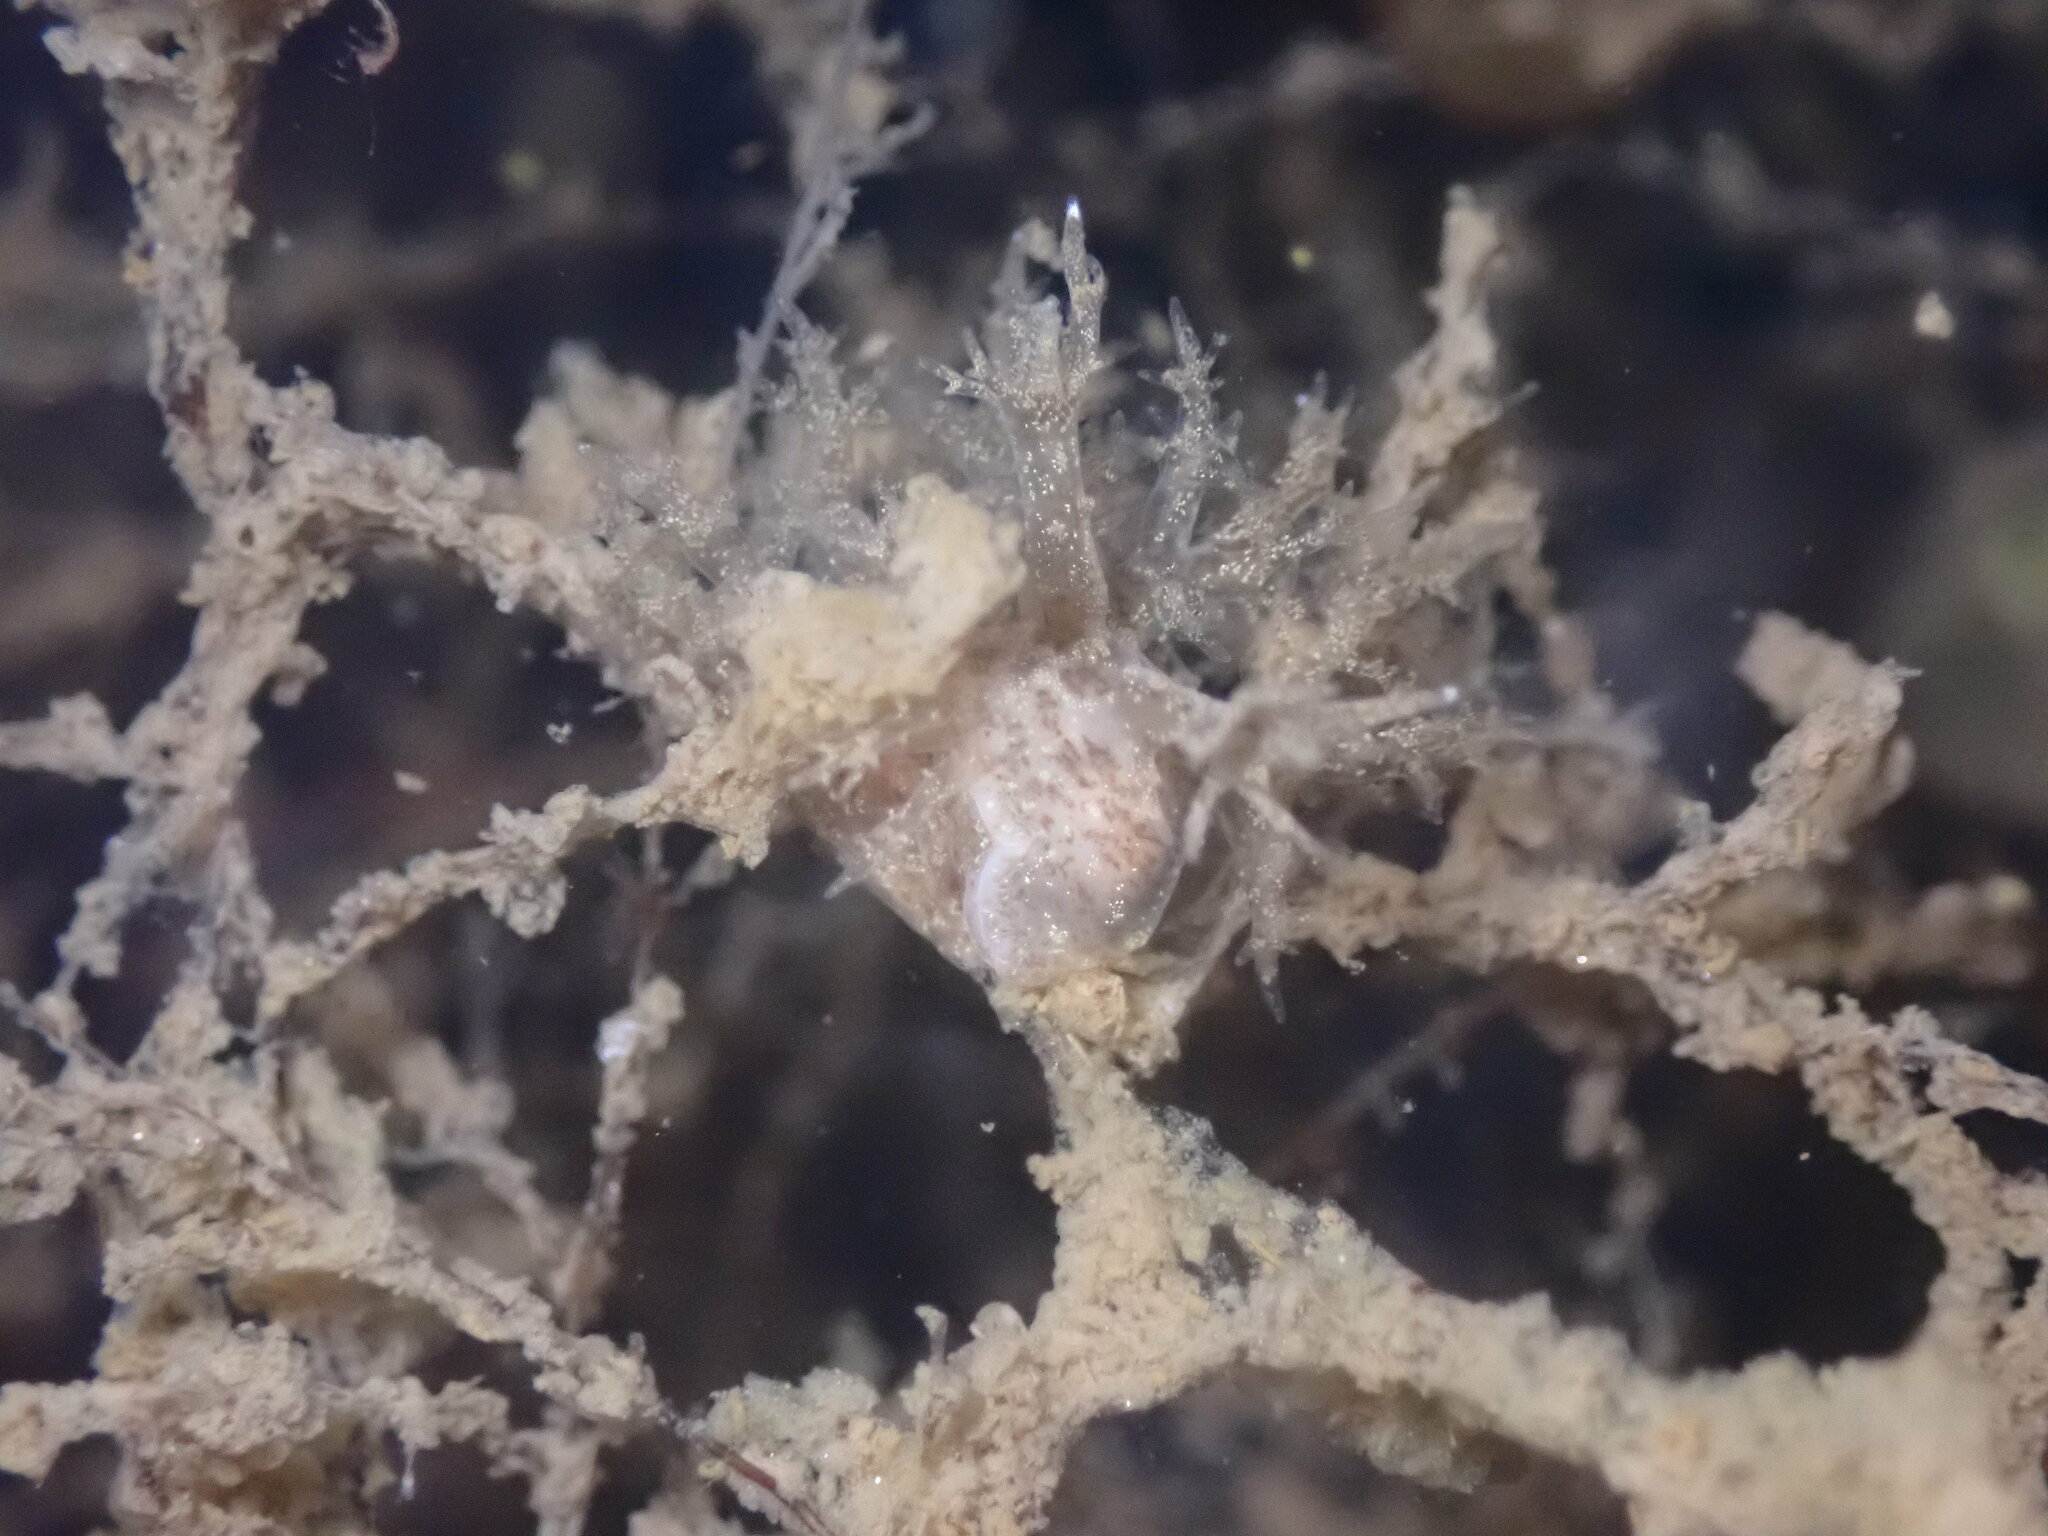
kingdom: Animalia
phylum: Mollusca
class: Gastropoda
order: Nudibranchia
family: Dendronotidae
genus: Dendronotus
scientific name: Dendronotus venustus
